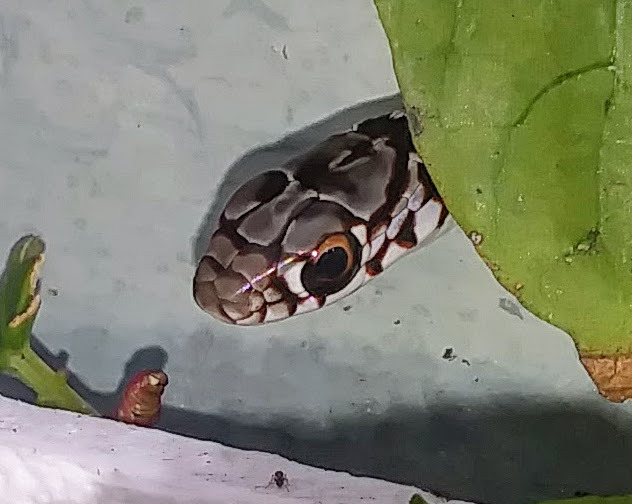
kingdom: Animalia
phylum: Chordata
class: Squamata
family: Colubridae
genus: Coluber
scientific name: Coluber constrictor
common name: Eastern racer
